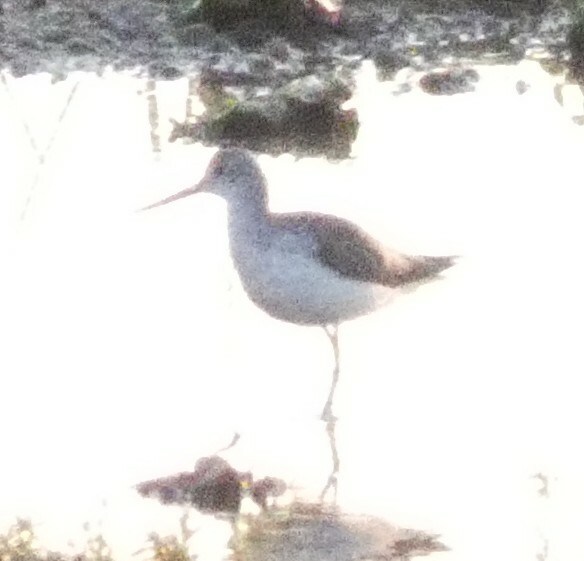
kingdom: Animalia
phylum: Chordata
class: Aves
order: Charadriiformes
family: Scolopacidae
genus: Tringa
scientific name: Tringa nebularia
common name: Common greenshank
